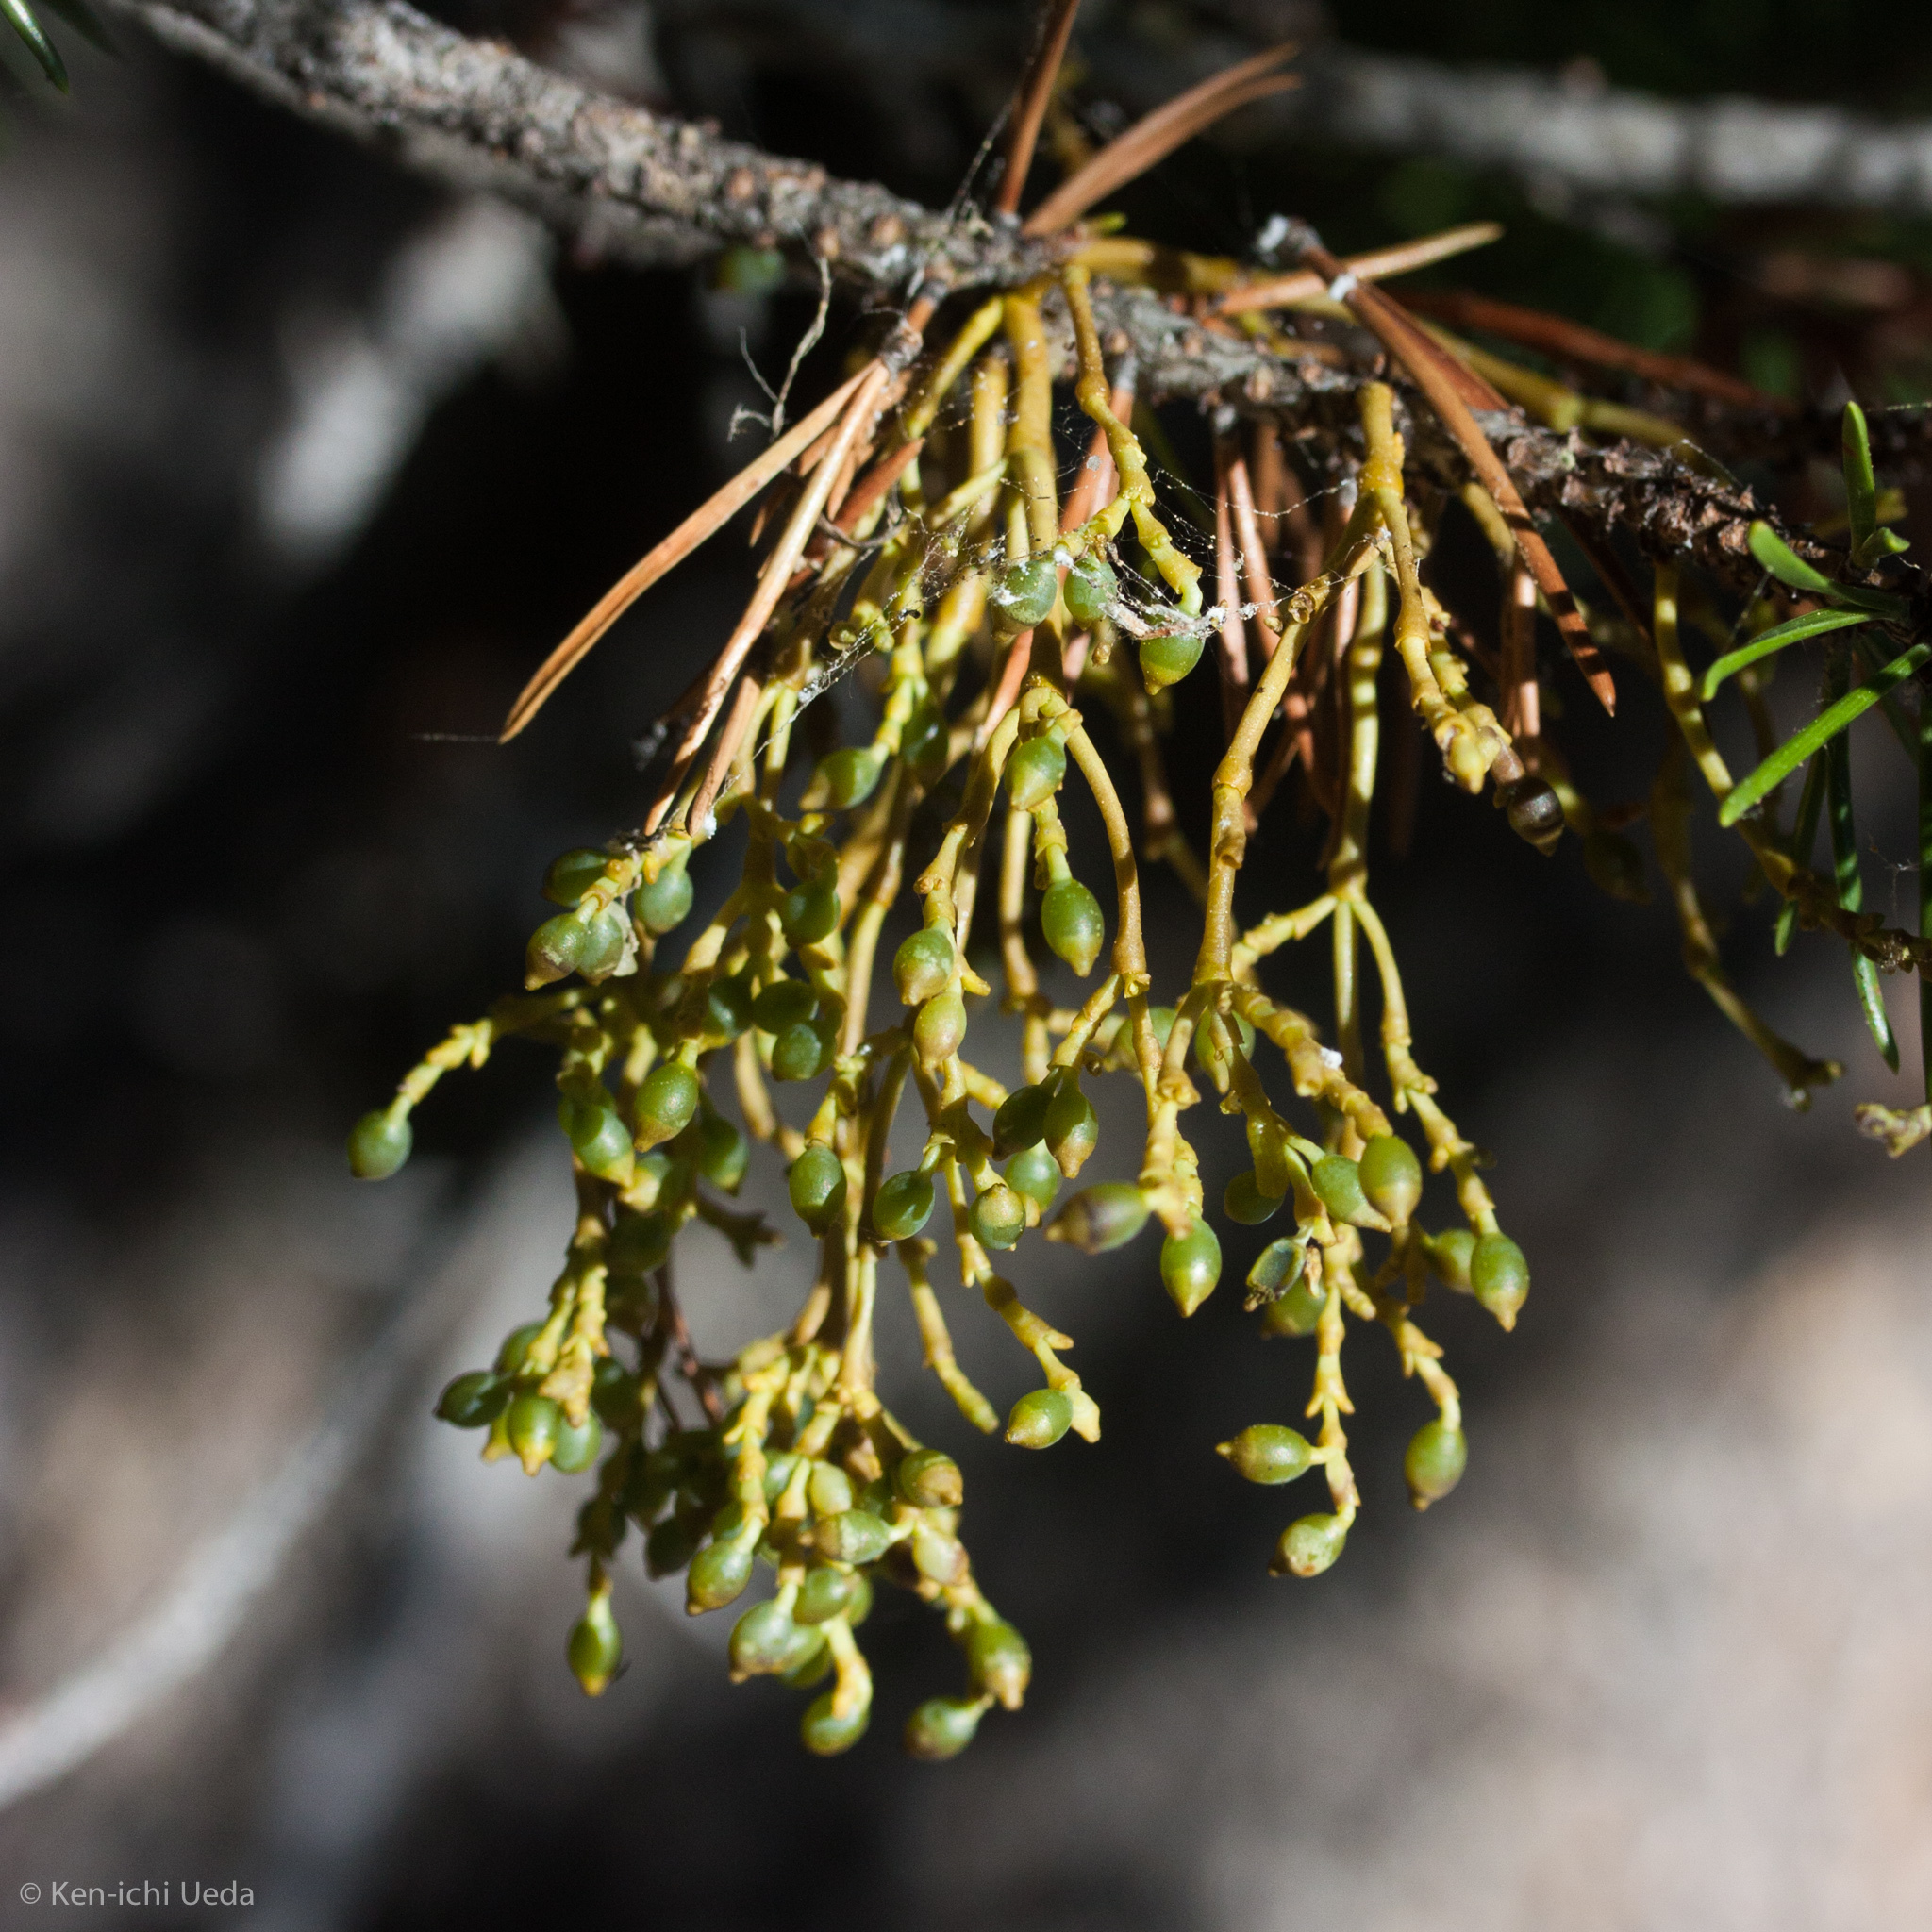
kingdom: Plantae
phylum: Tracheophyta
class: Magnoliopsida
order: Santalales
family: Viscaceae
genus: Arceuthobium
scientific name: Arceuthobium americanum
